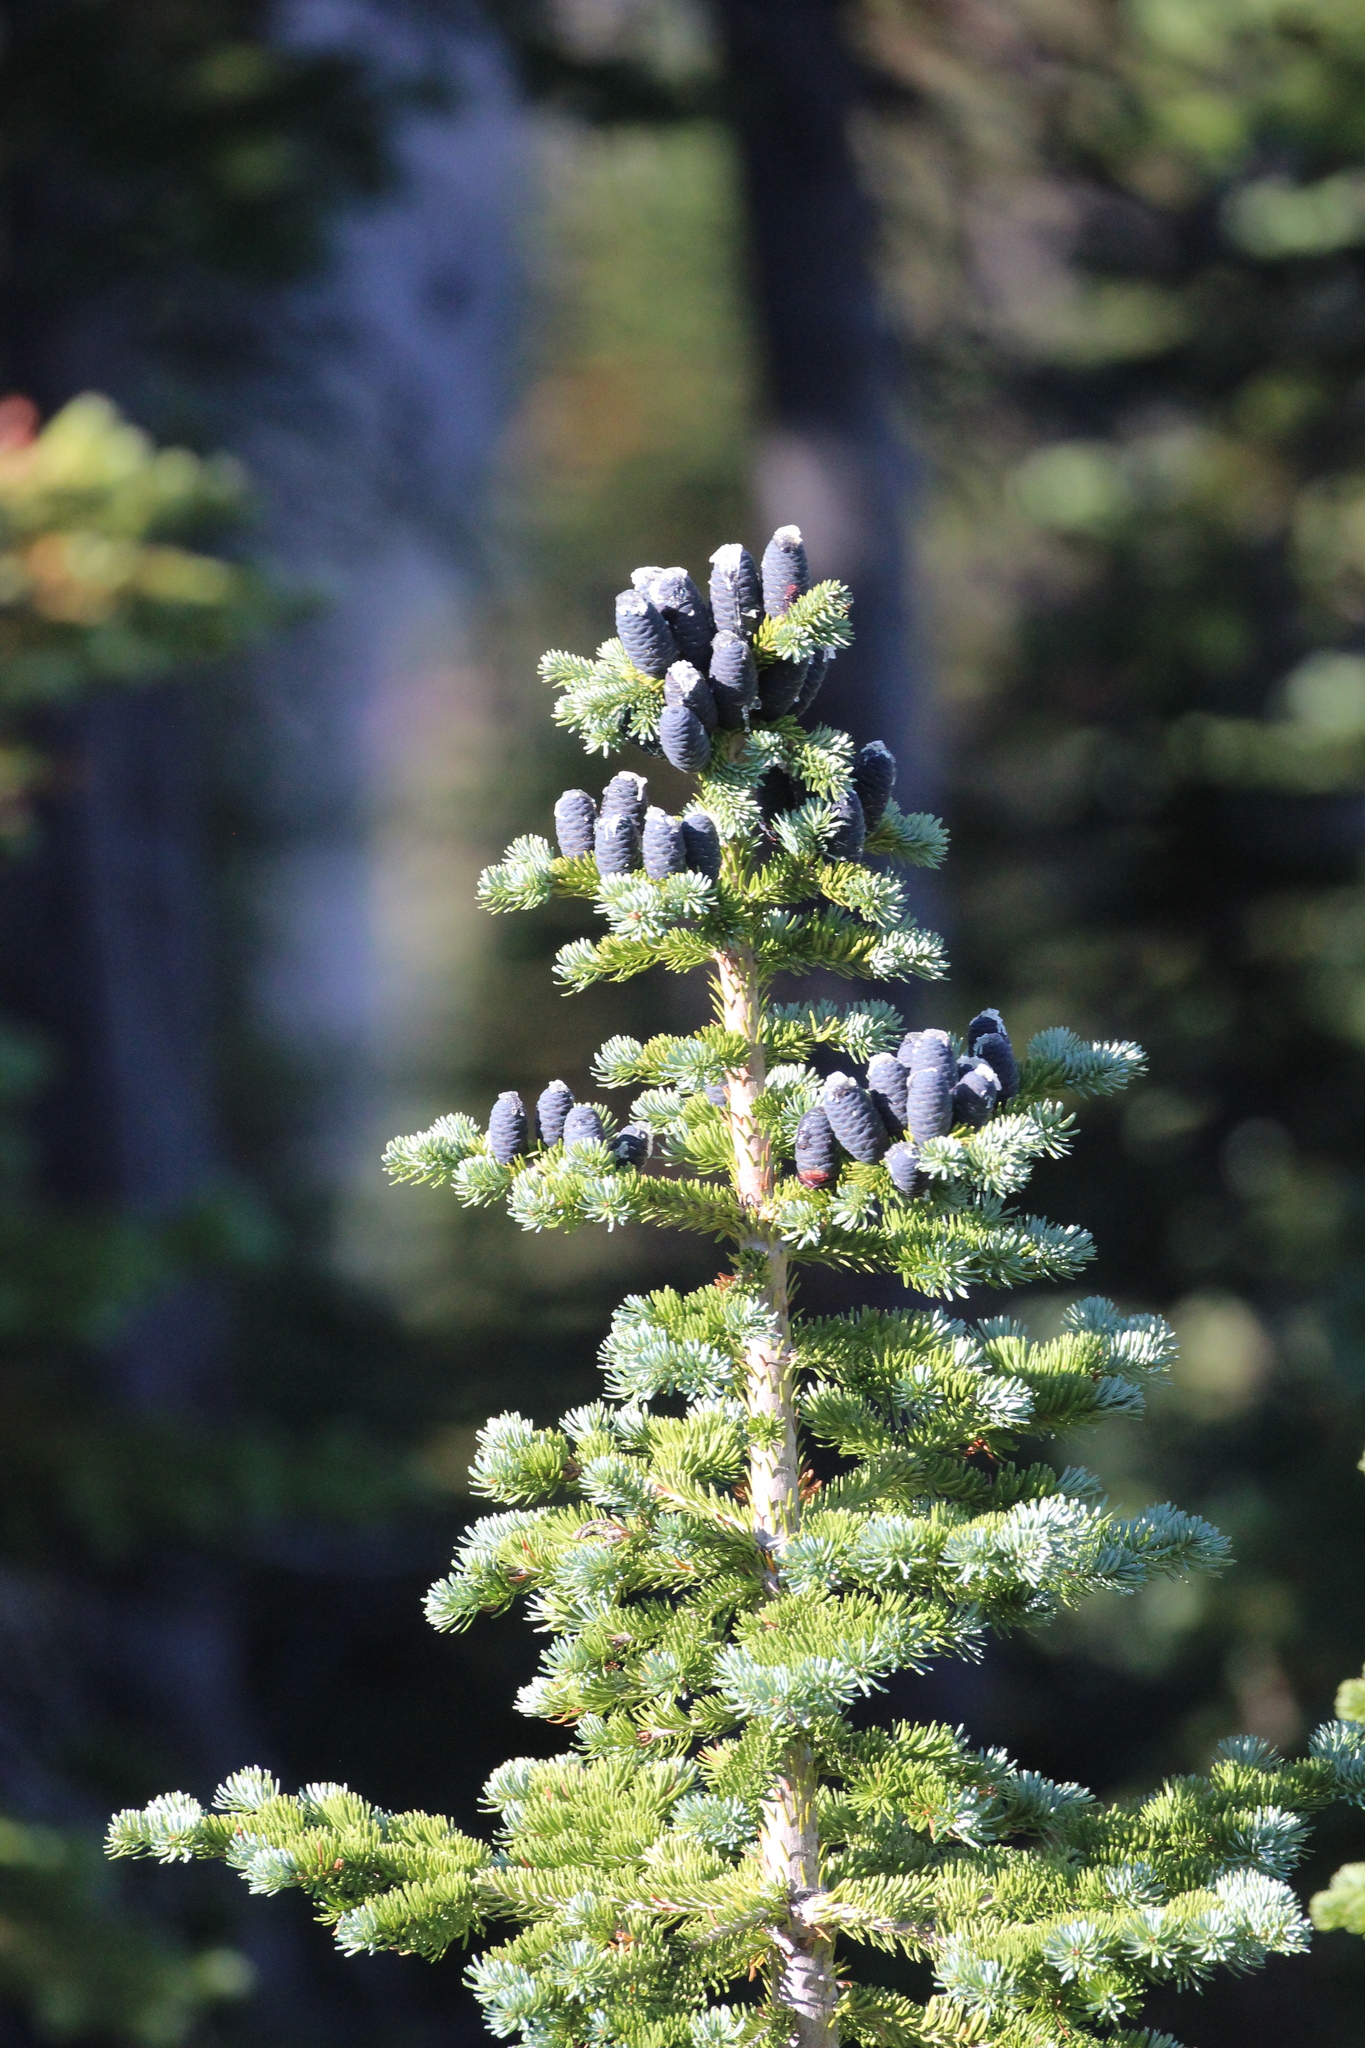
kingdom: Plantae
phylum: Tracheophyta
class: Pinopsida
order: Pinales
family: Pinaceae
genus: Abies
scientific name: Abies lasiocarpa
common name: Subalpine fir
